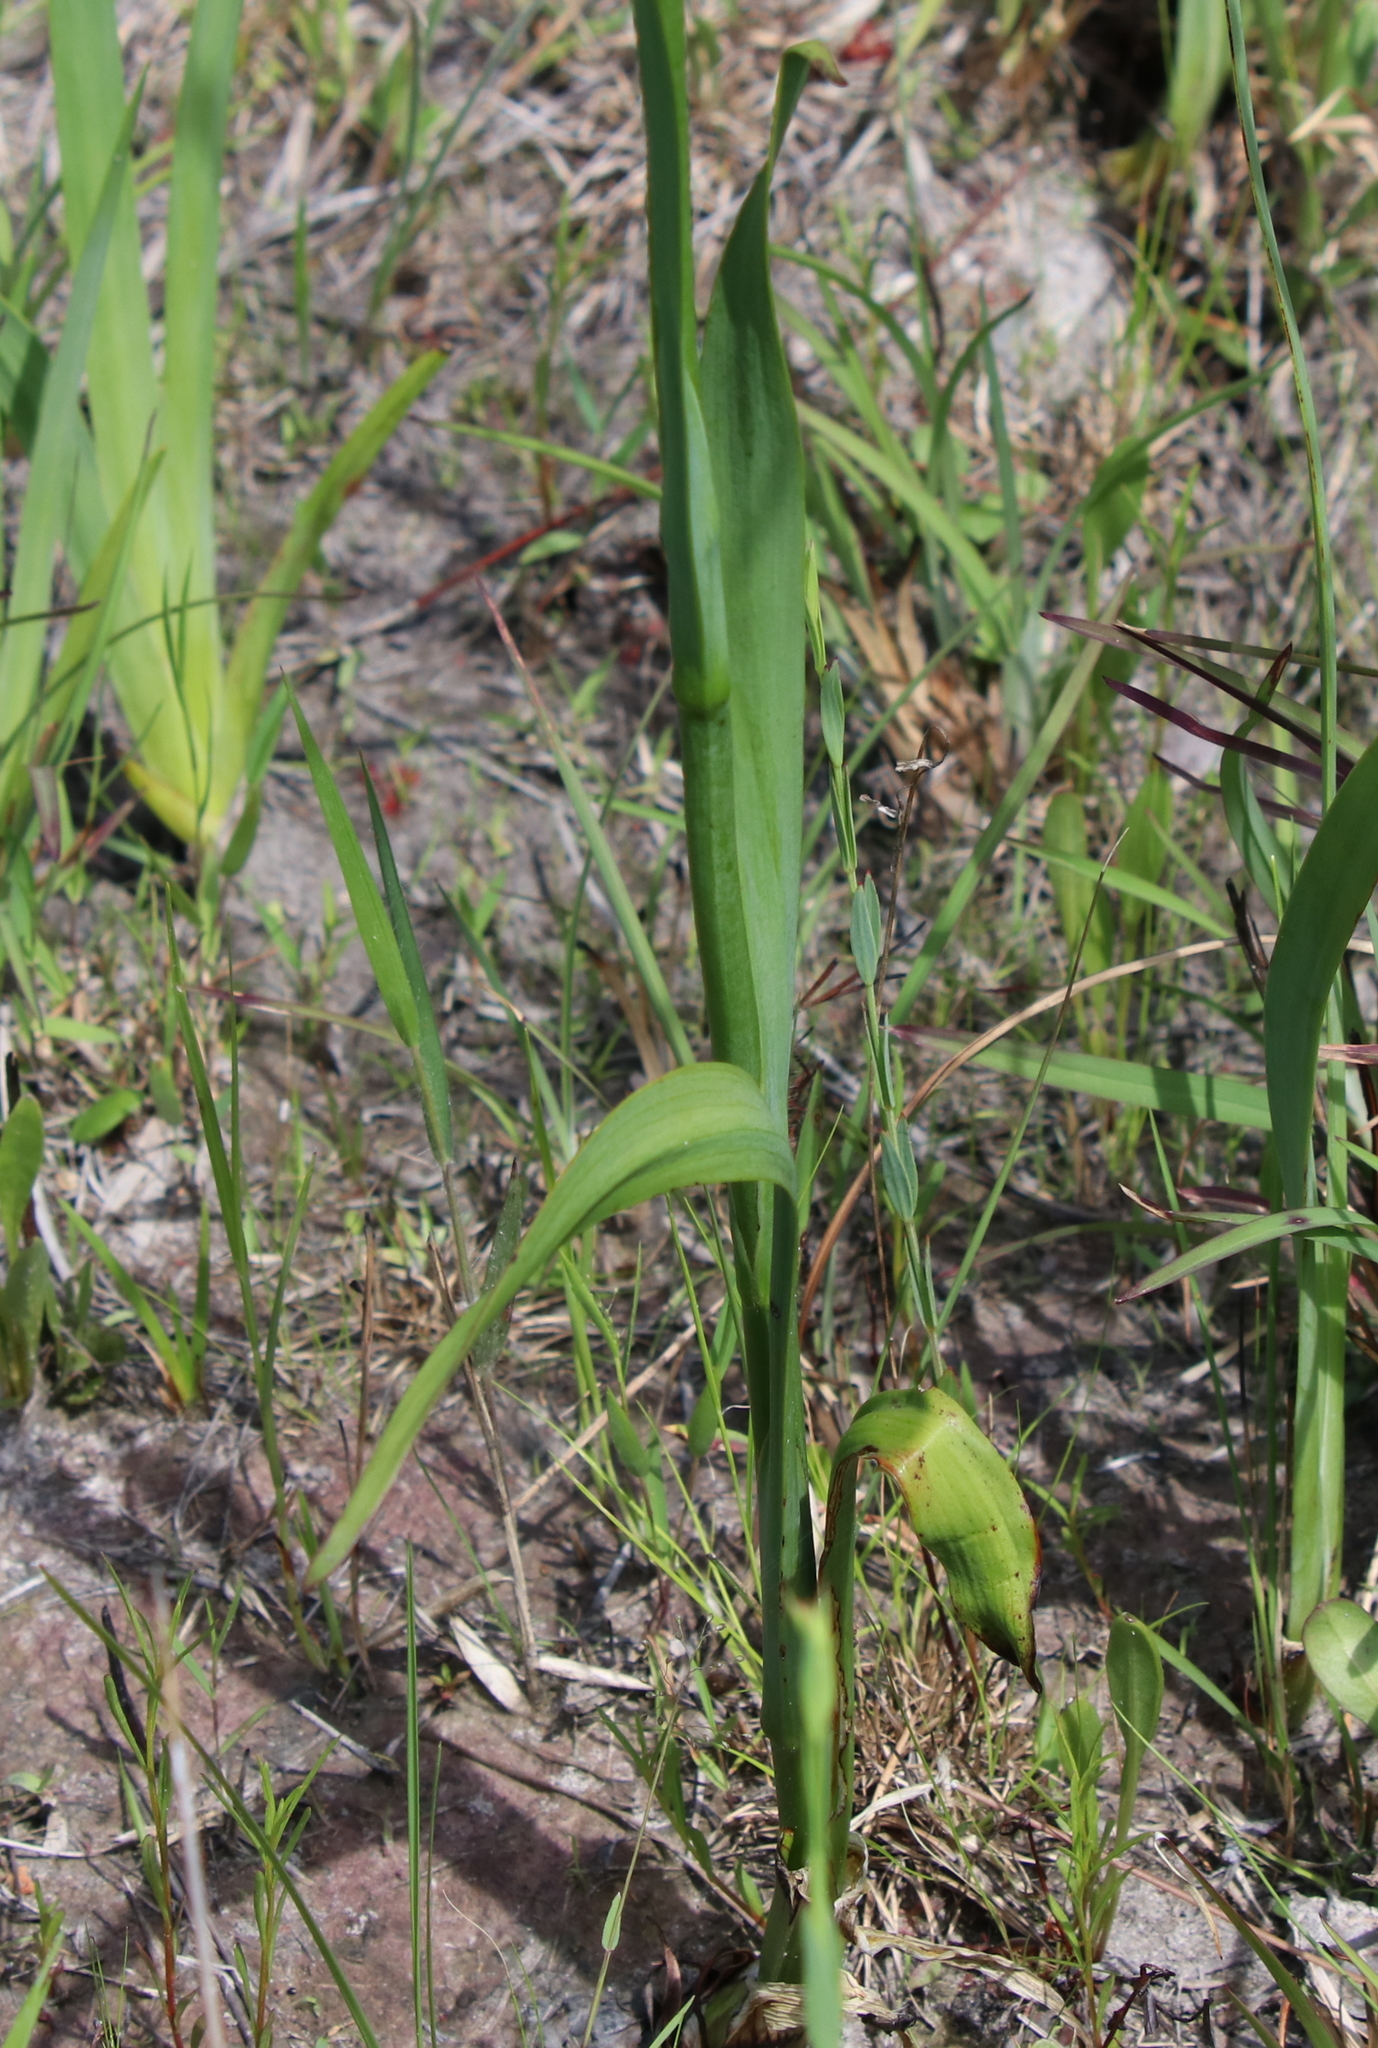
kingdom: Plantae
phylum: Tracheophyta
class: Liliopsida
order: Commelinales
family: Haemodoraceae
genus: Lachnanthes
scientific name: Lachnanthes caroliana
